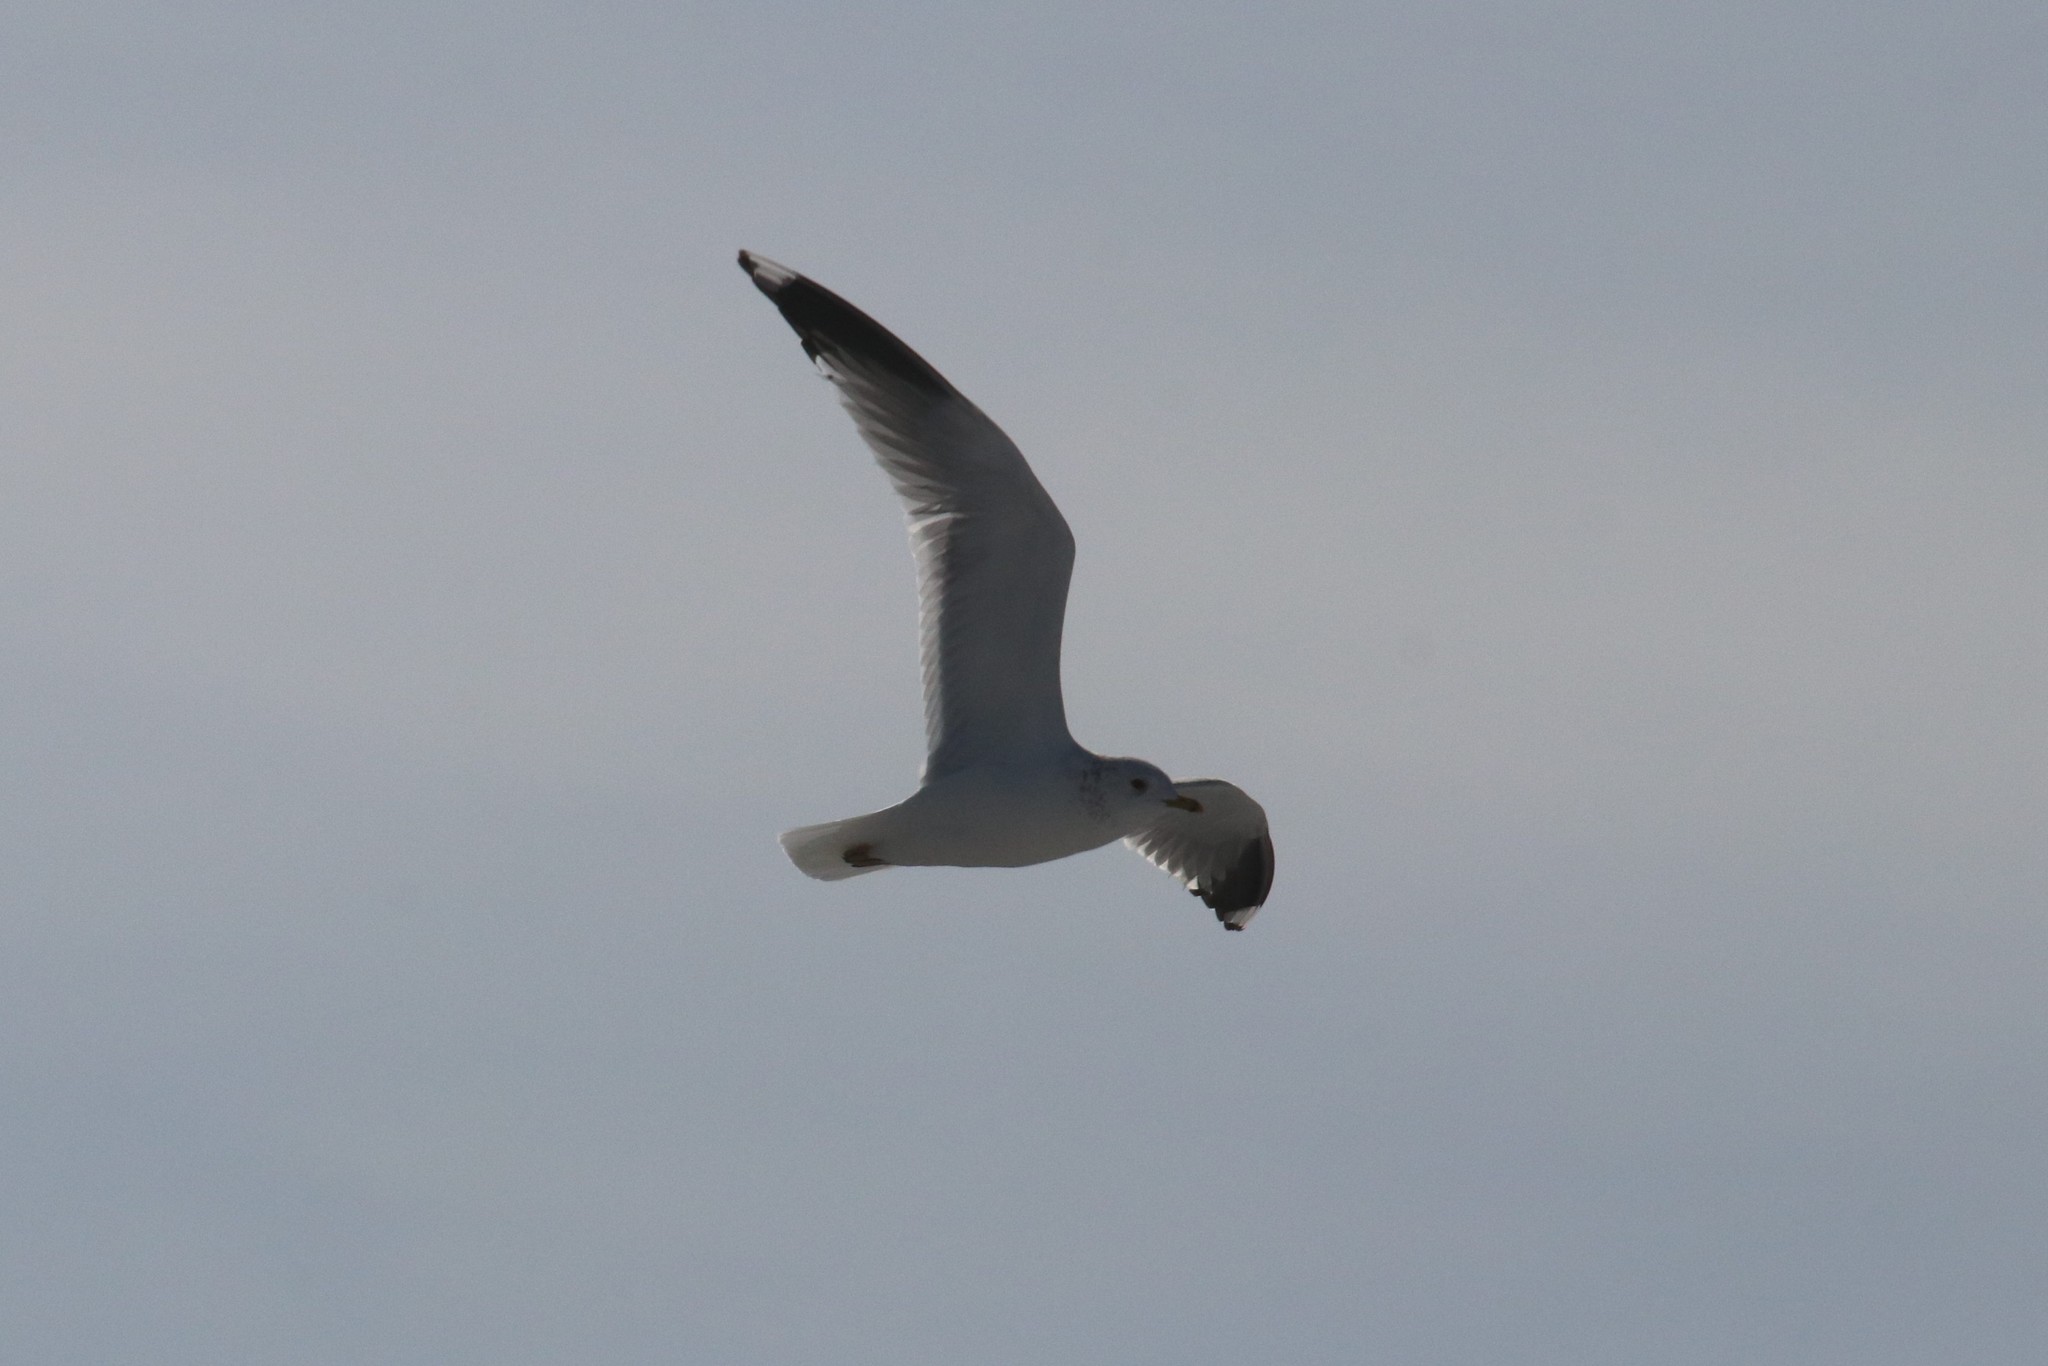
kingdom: Animalia
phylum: Chordata
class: Aves
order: Charadriiformes
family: Laridae
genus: Larus
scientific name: Larus canus
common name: Mew gull
